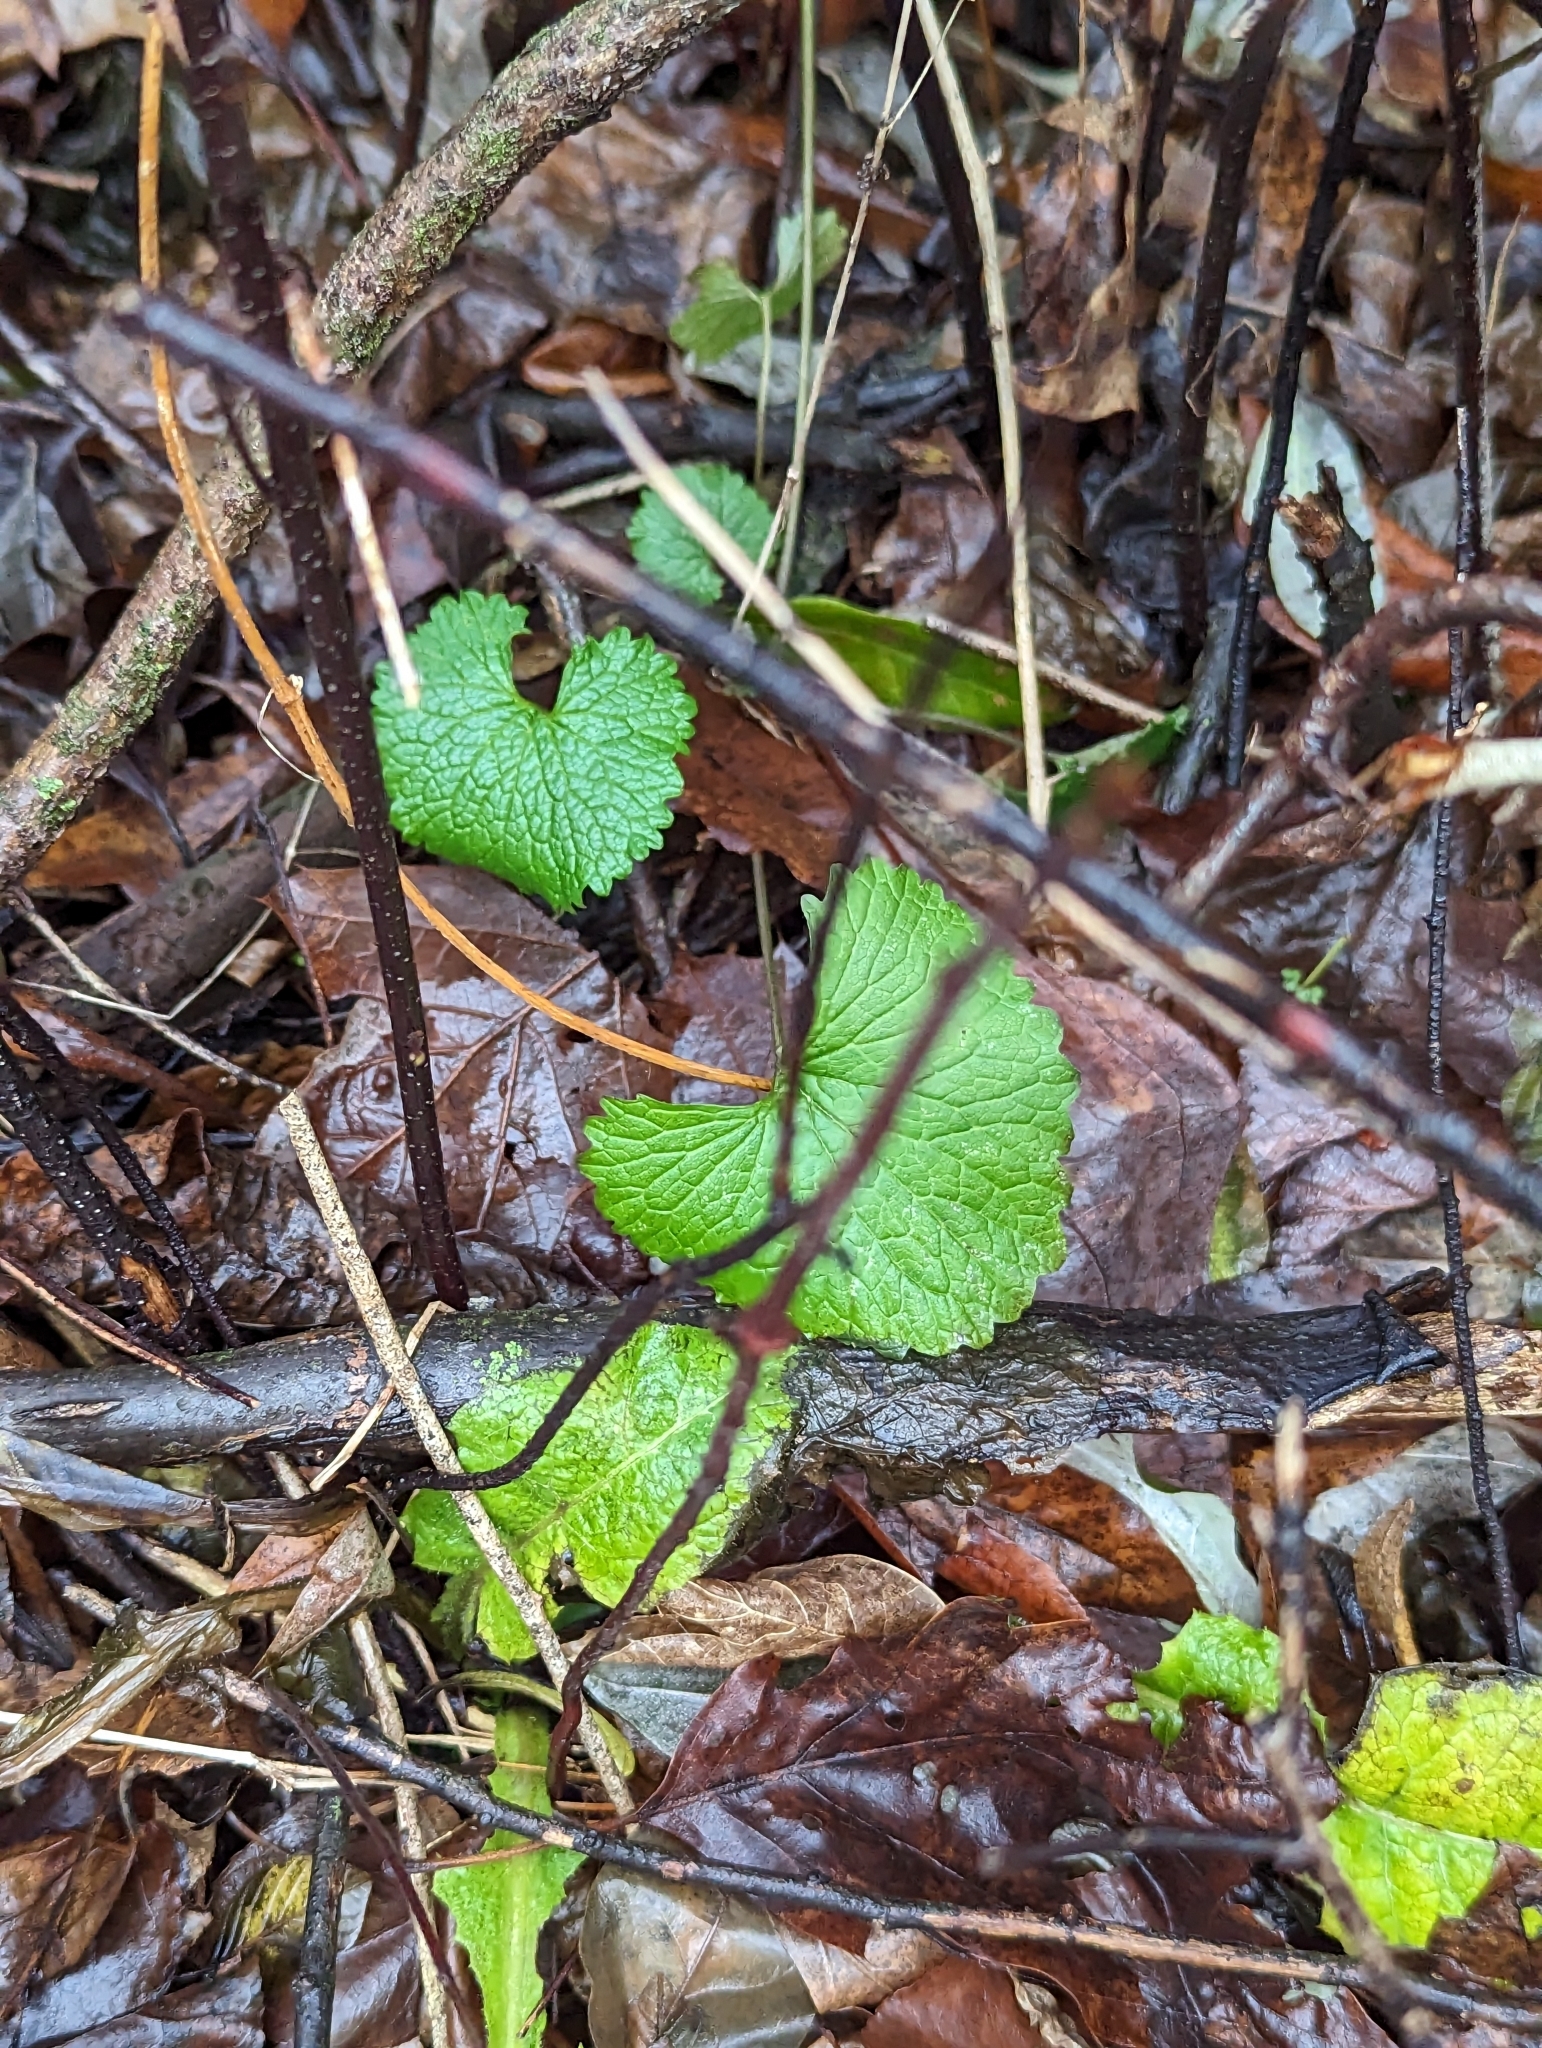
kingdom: Plantae
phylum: Tracheophyta
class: Magnoliopsida
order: Brassicales
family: Brassicaceae
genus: Alliaria
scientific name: Alliaria petiolata
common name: Garlic mustard
